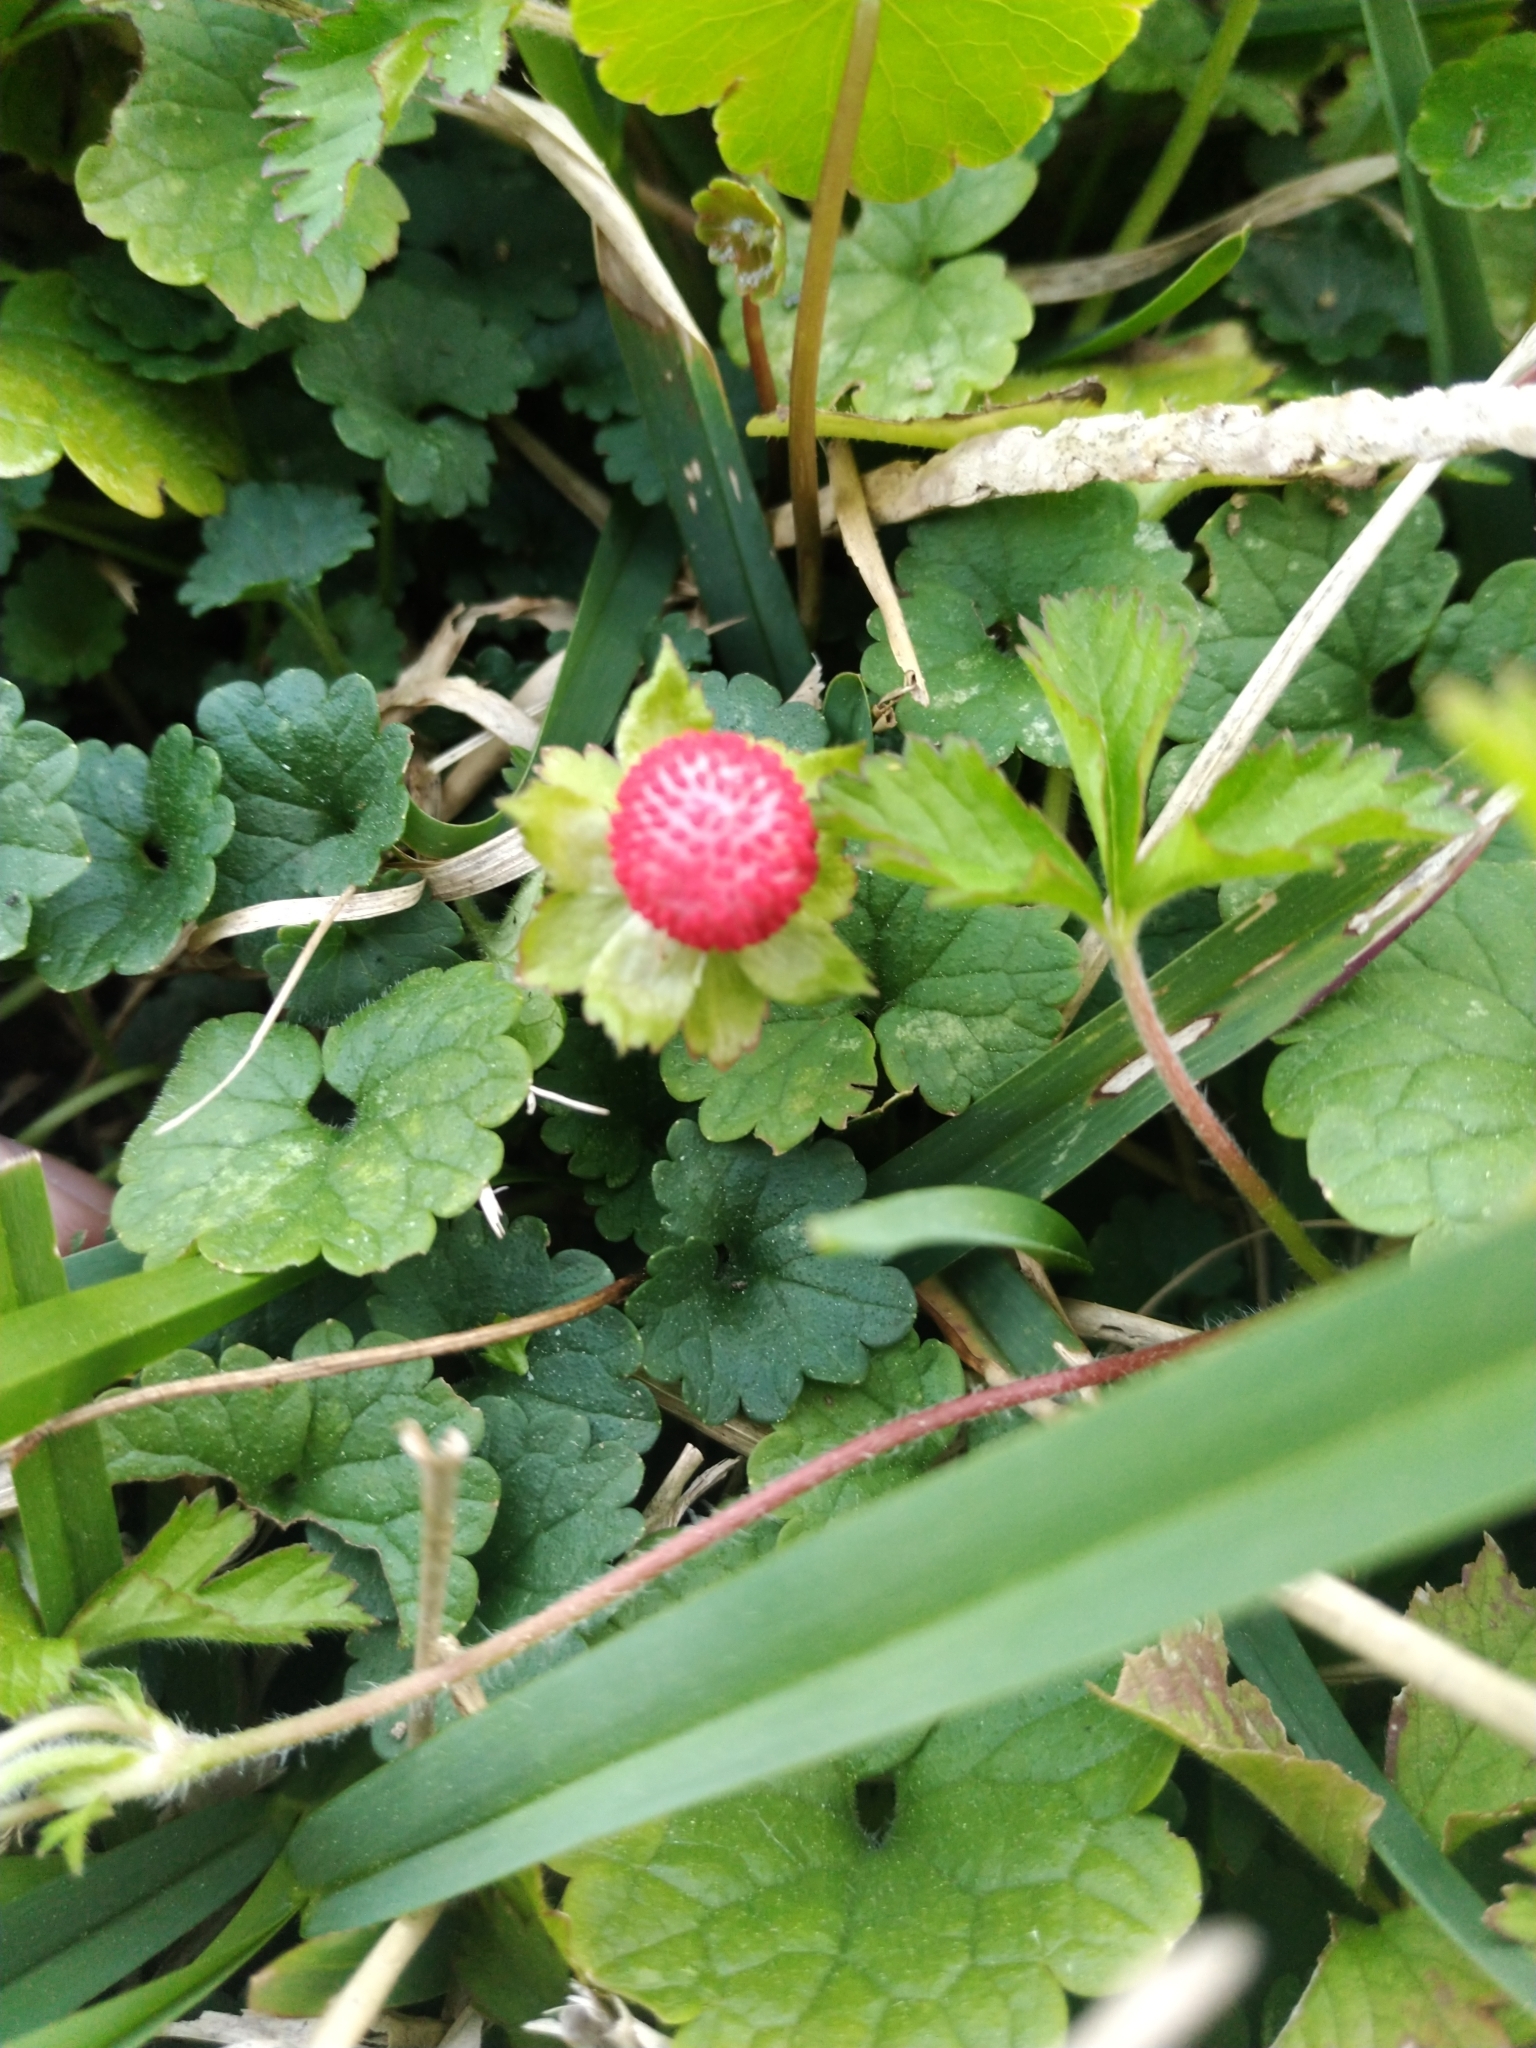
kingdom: Plantae
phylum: Tracheophyta
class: Magnoliopsida
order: Rosales
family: Rosaceae
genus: Potentilla
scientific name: Potentilla indica
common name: Yellow-flowered strawberry
